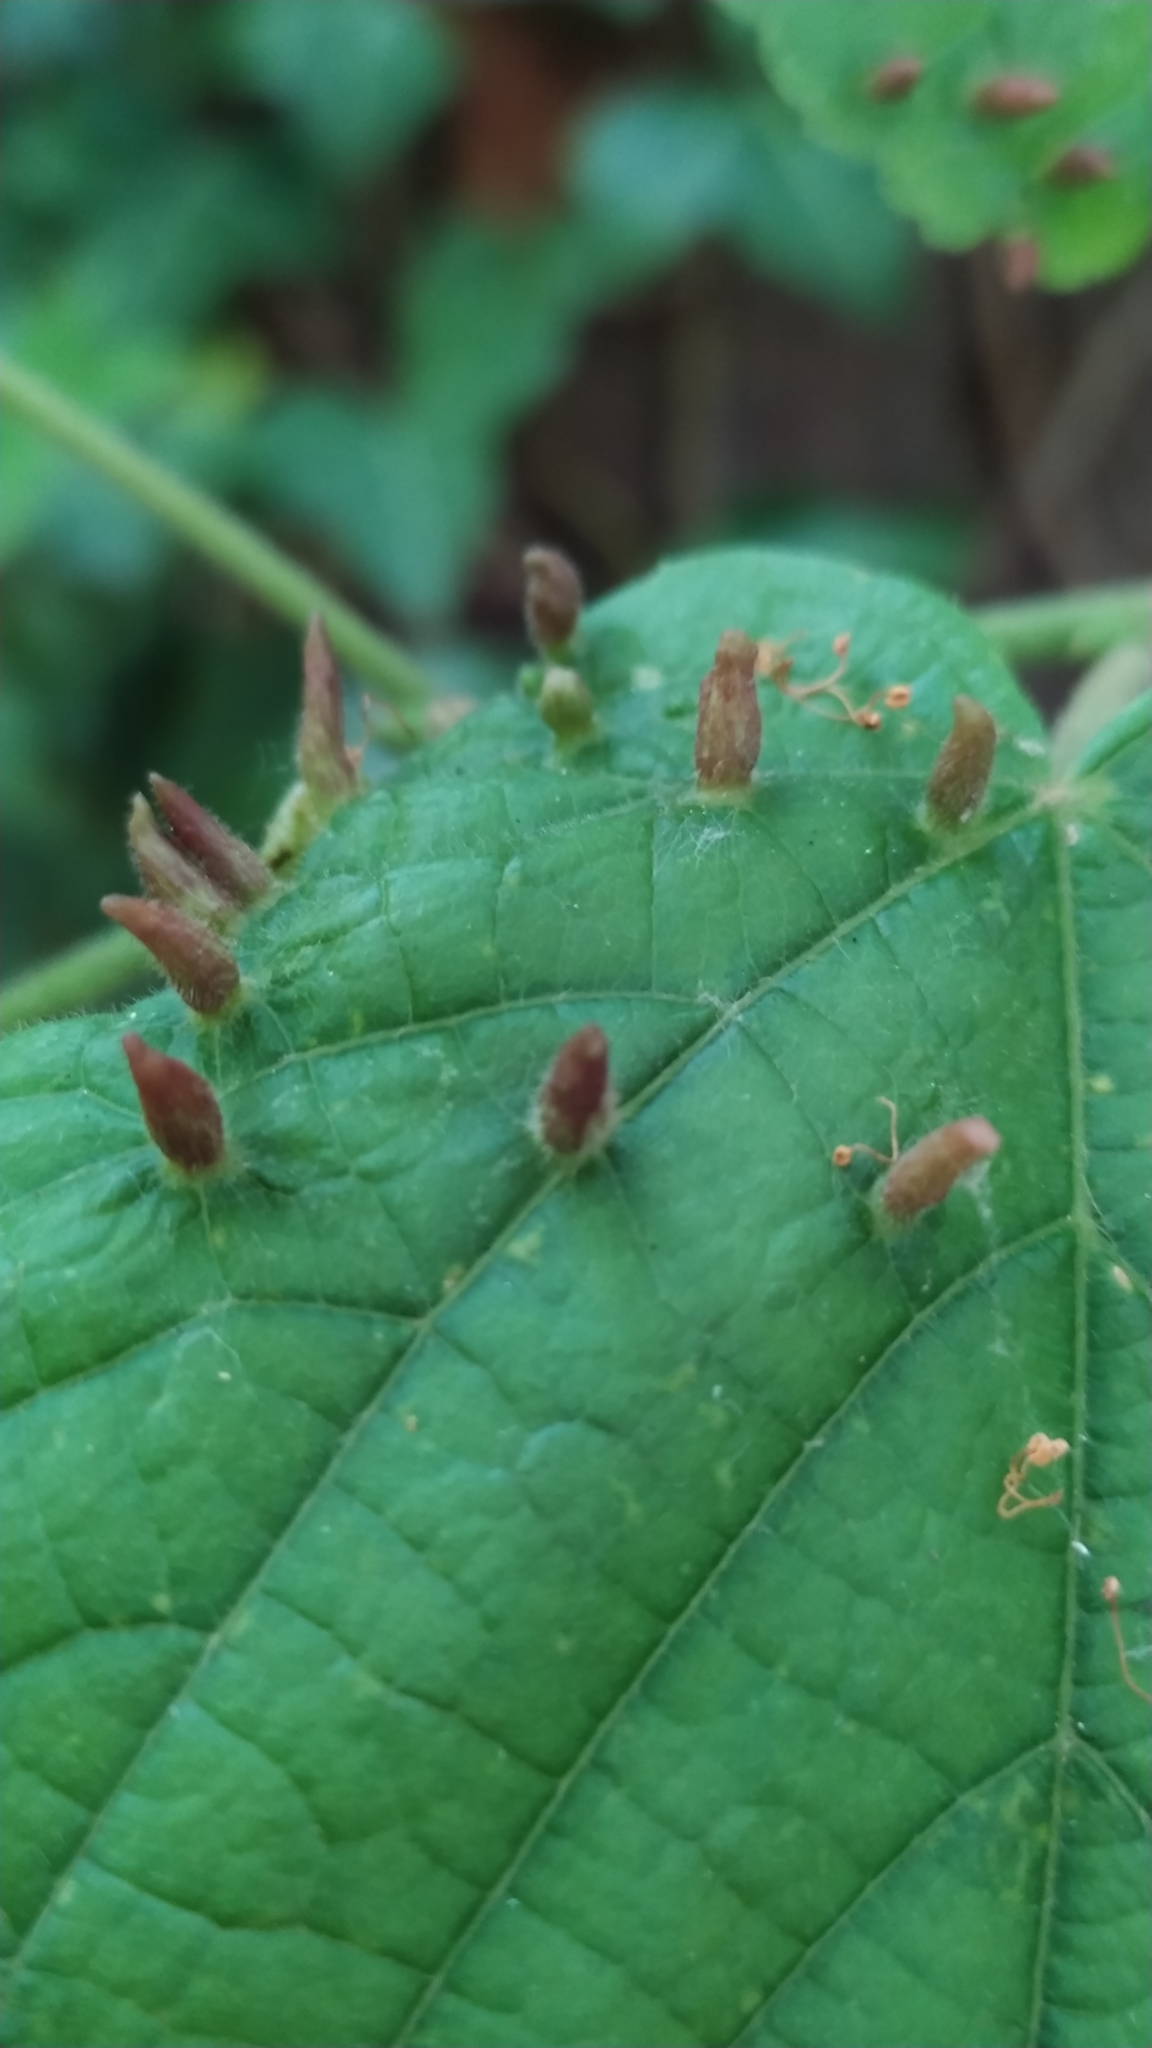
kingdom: Animalia
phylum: Arthropoda
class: Arachnida
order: Trombidiformes
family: Eriophyidae
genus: Eriophyes
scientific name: Eriophyes tiliae
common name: Red nail gall mite
